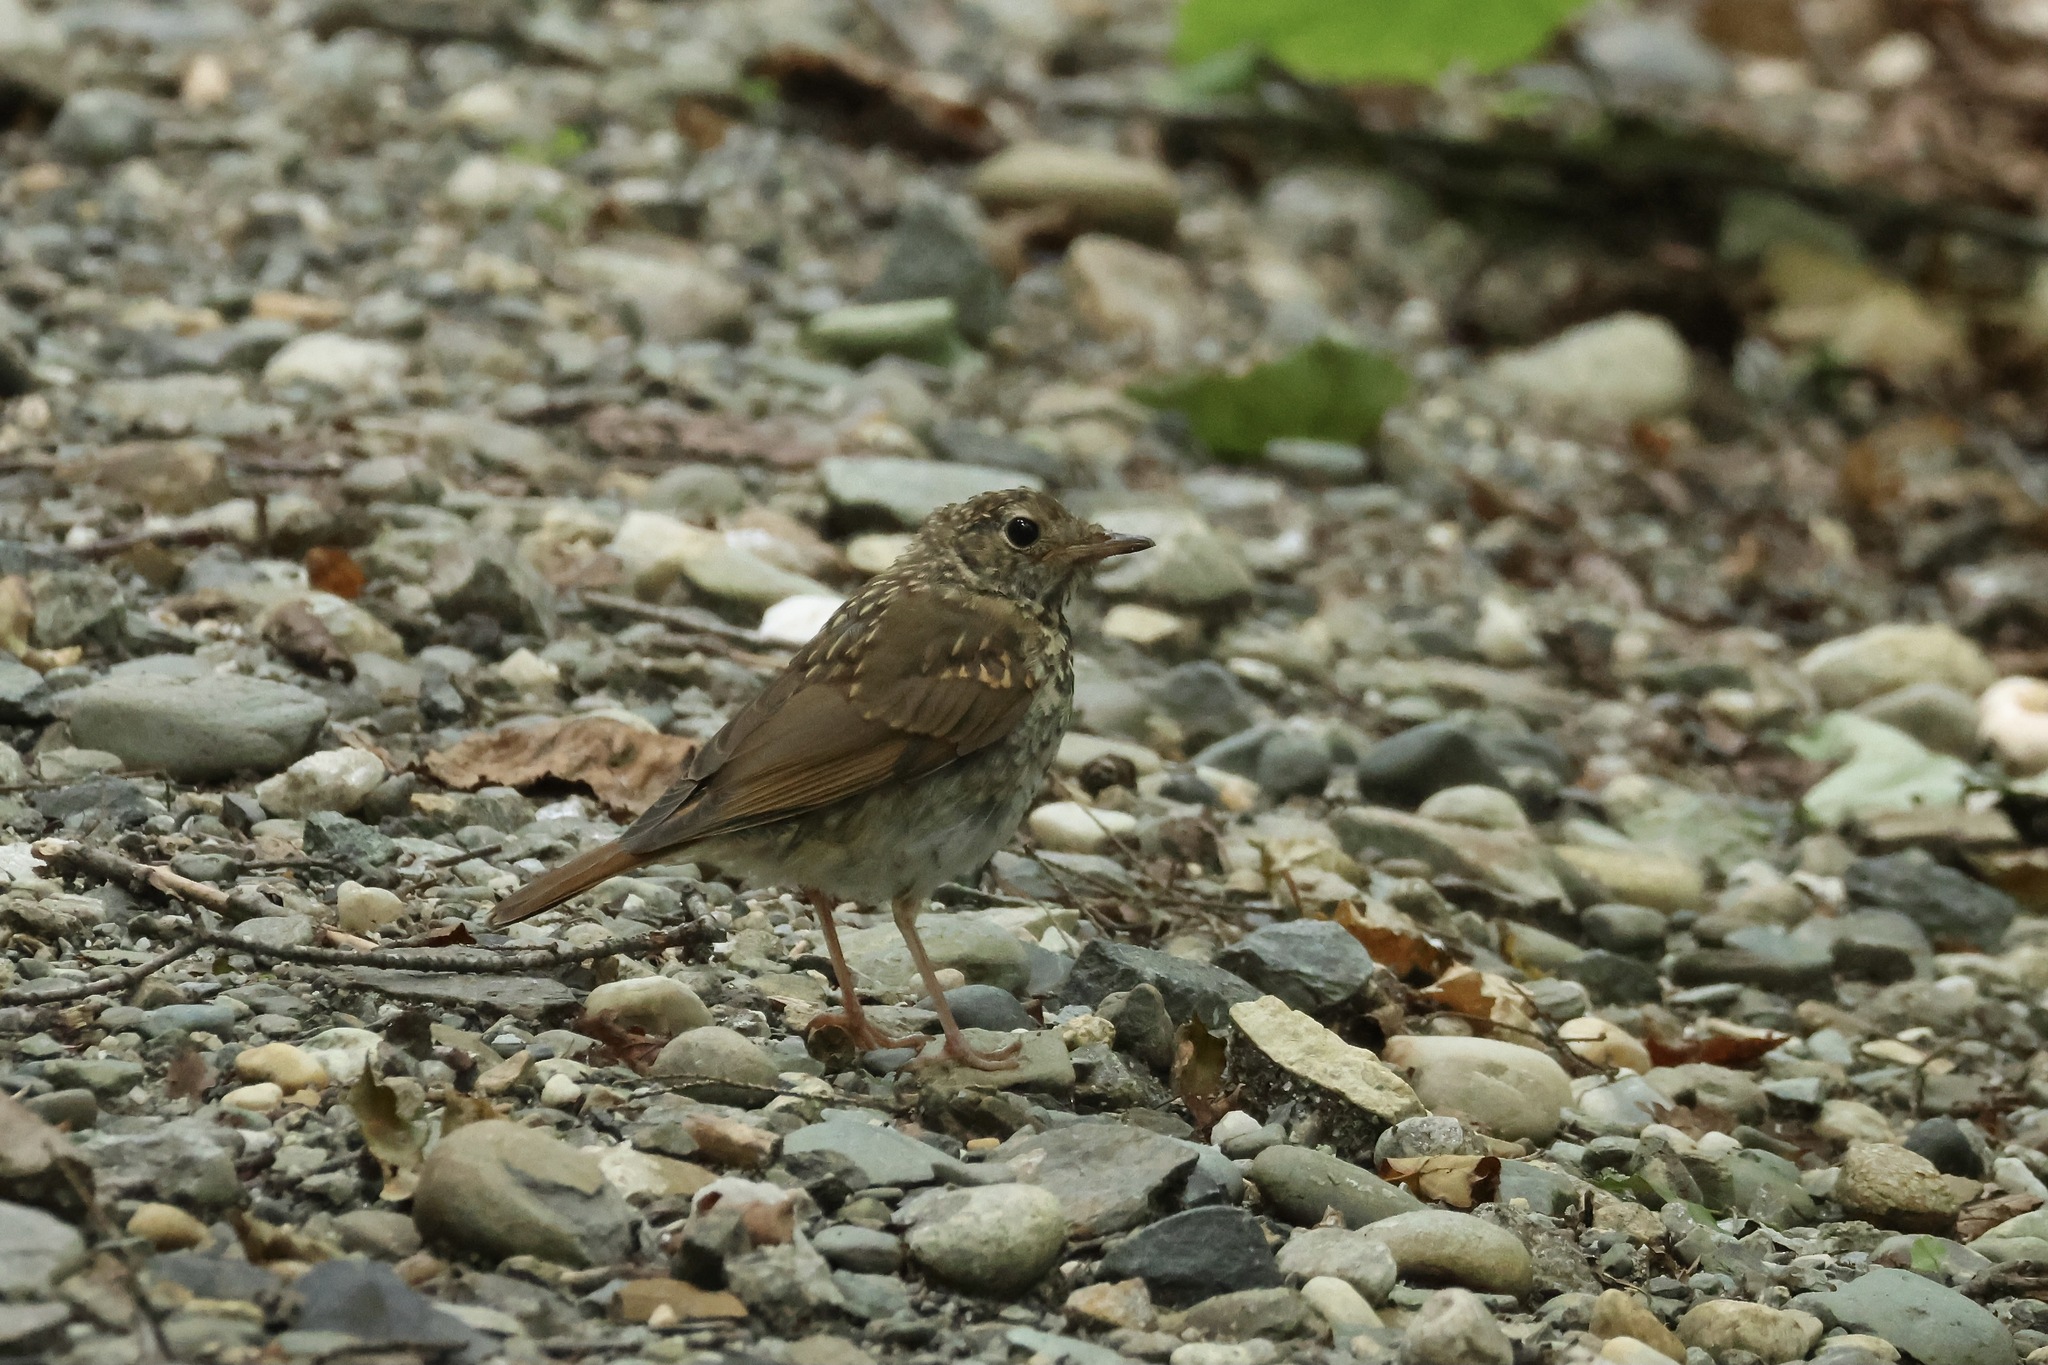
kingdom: Animalia
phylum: Chordata
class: Aves
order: Passeriformes
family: Turdidae
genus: Catharus
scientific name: Catharus guttatus
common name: Hermit thrush
